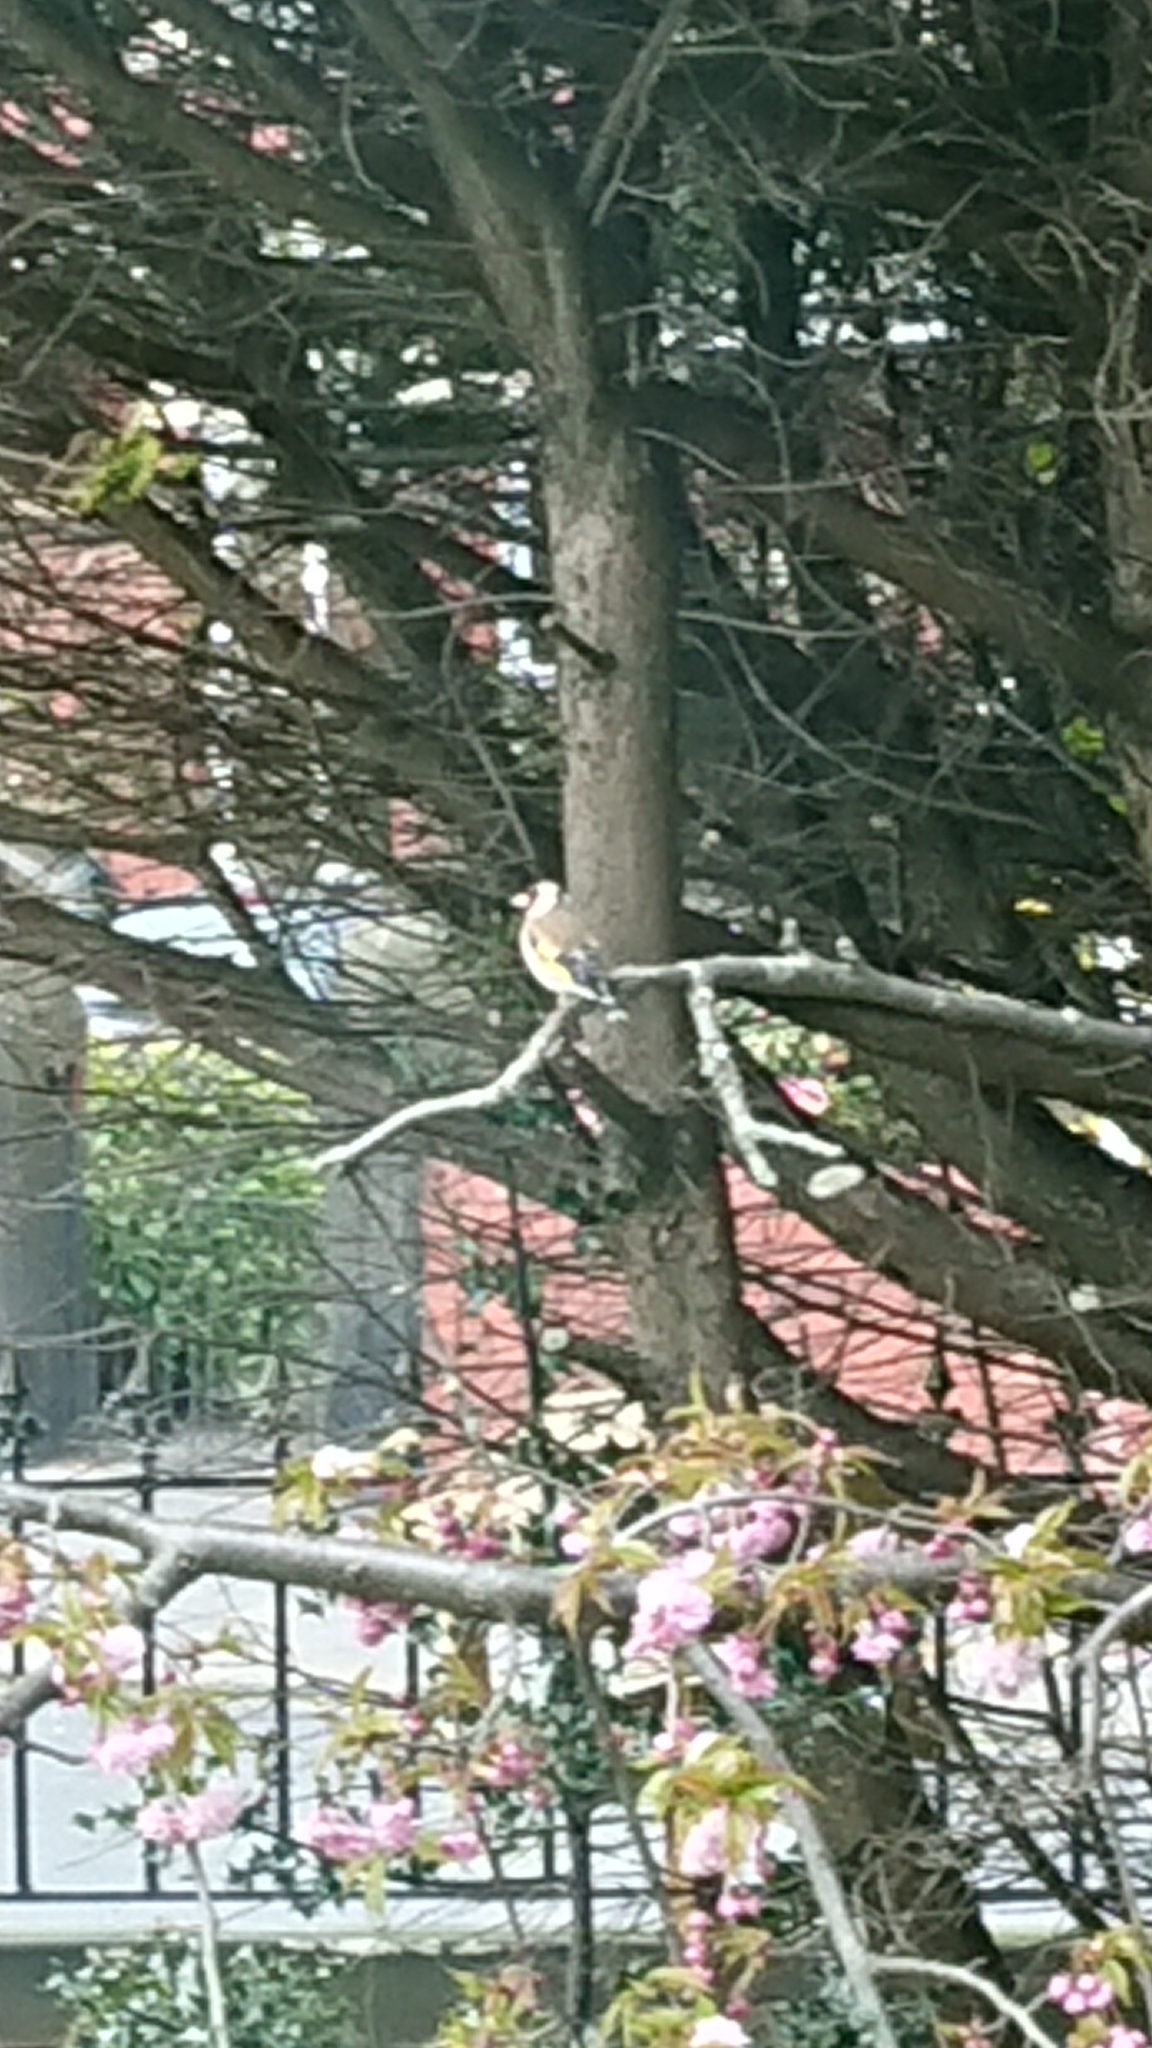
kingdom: Animalia
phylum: Chordata
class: Aves
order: Passeriformes
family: Fringillidae
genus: Carduelis
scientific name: Carduelis carduelis
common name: European goldfinch
